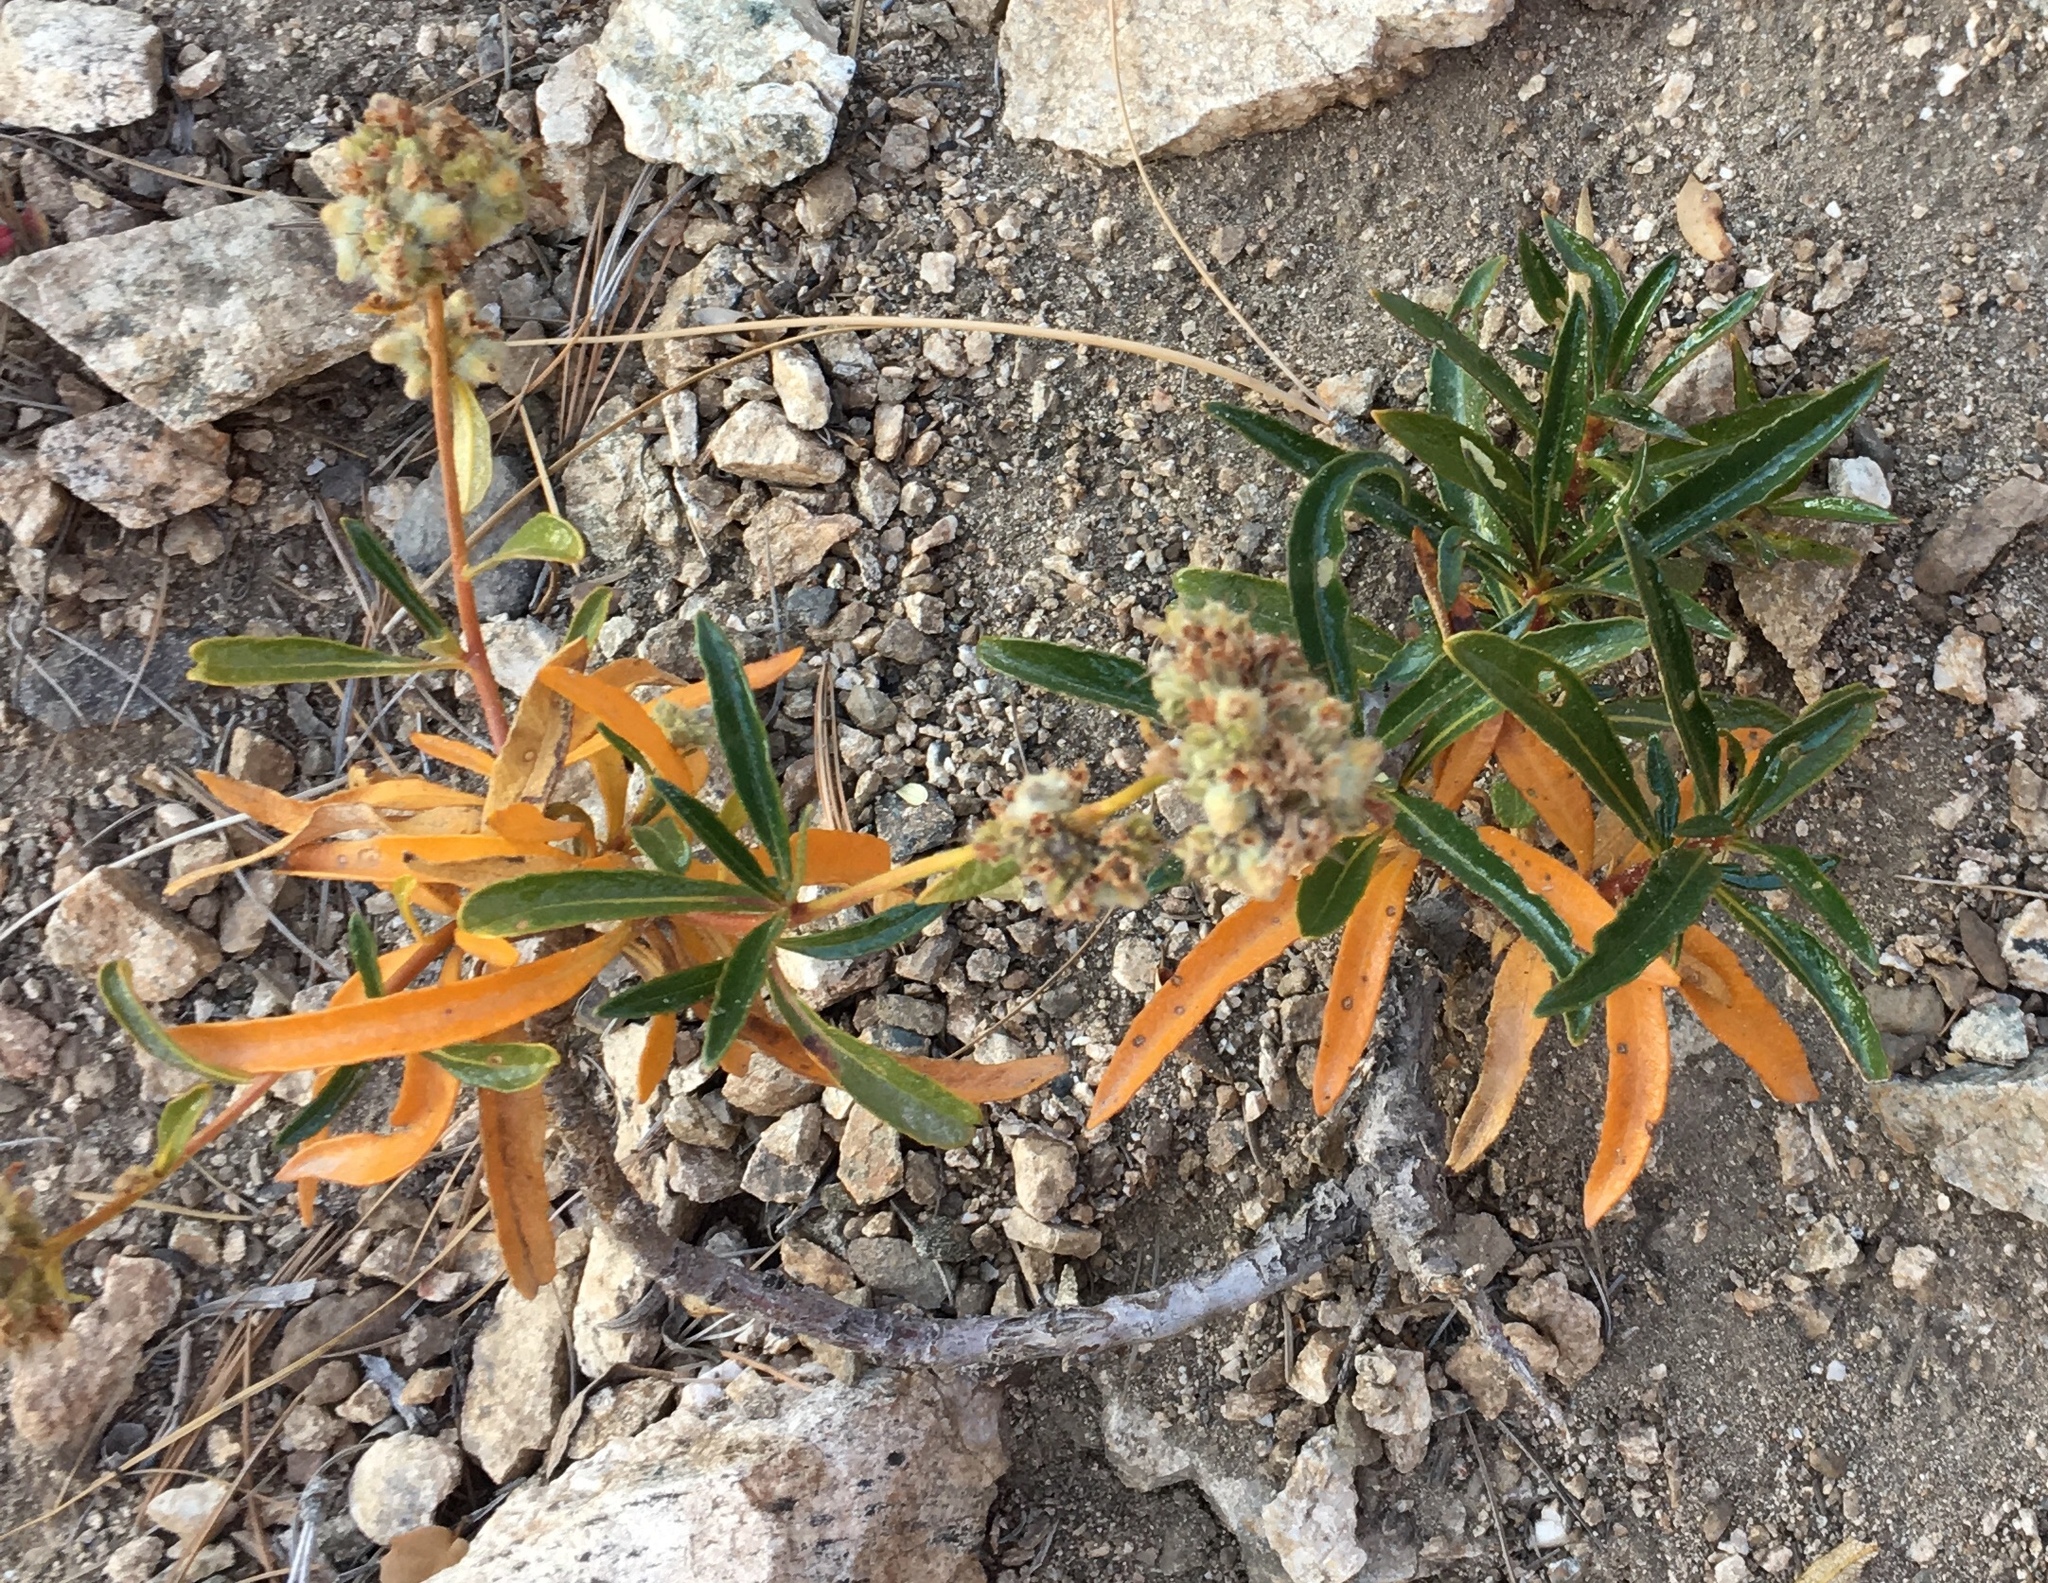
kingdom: Plantae
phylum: Tracheophyta
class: Magnoliopsida
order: Boraginales
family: Namaceae
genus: Eriodictyon
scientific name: Eriodictyon trichocalyx
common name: Hairy yerba-santa
